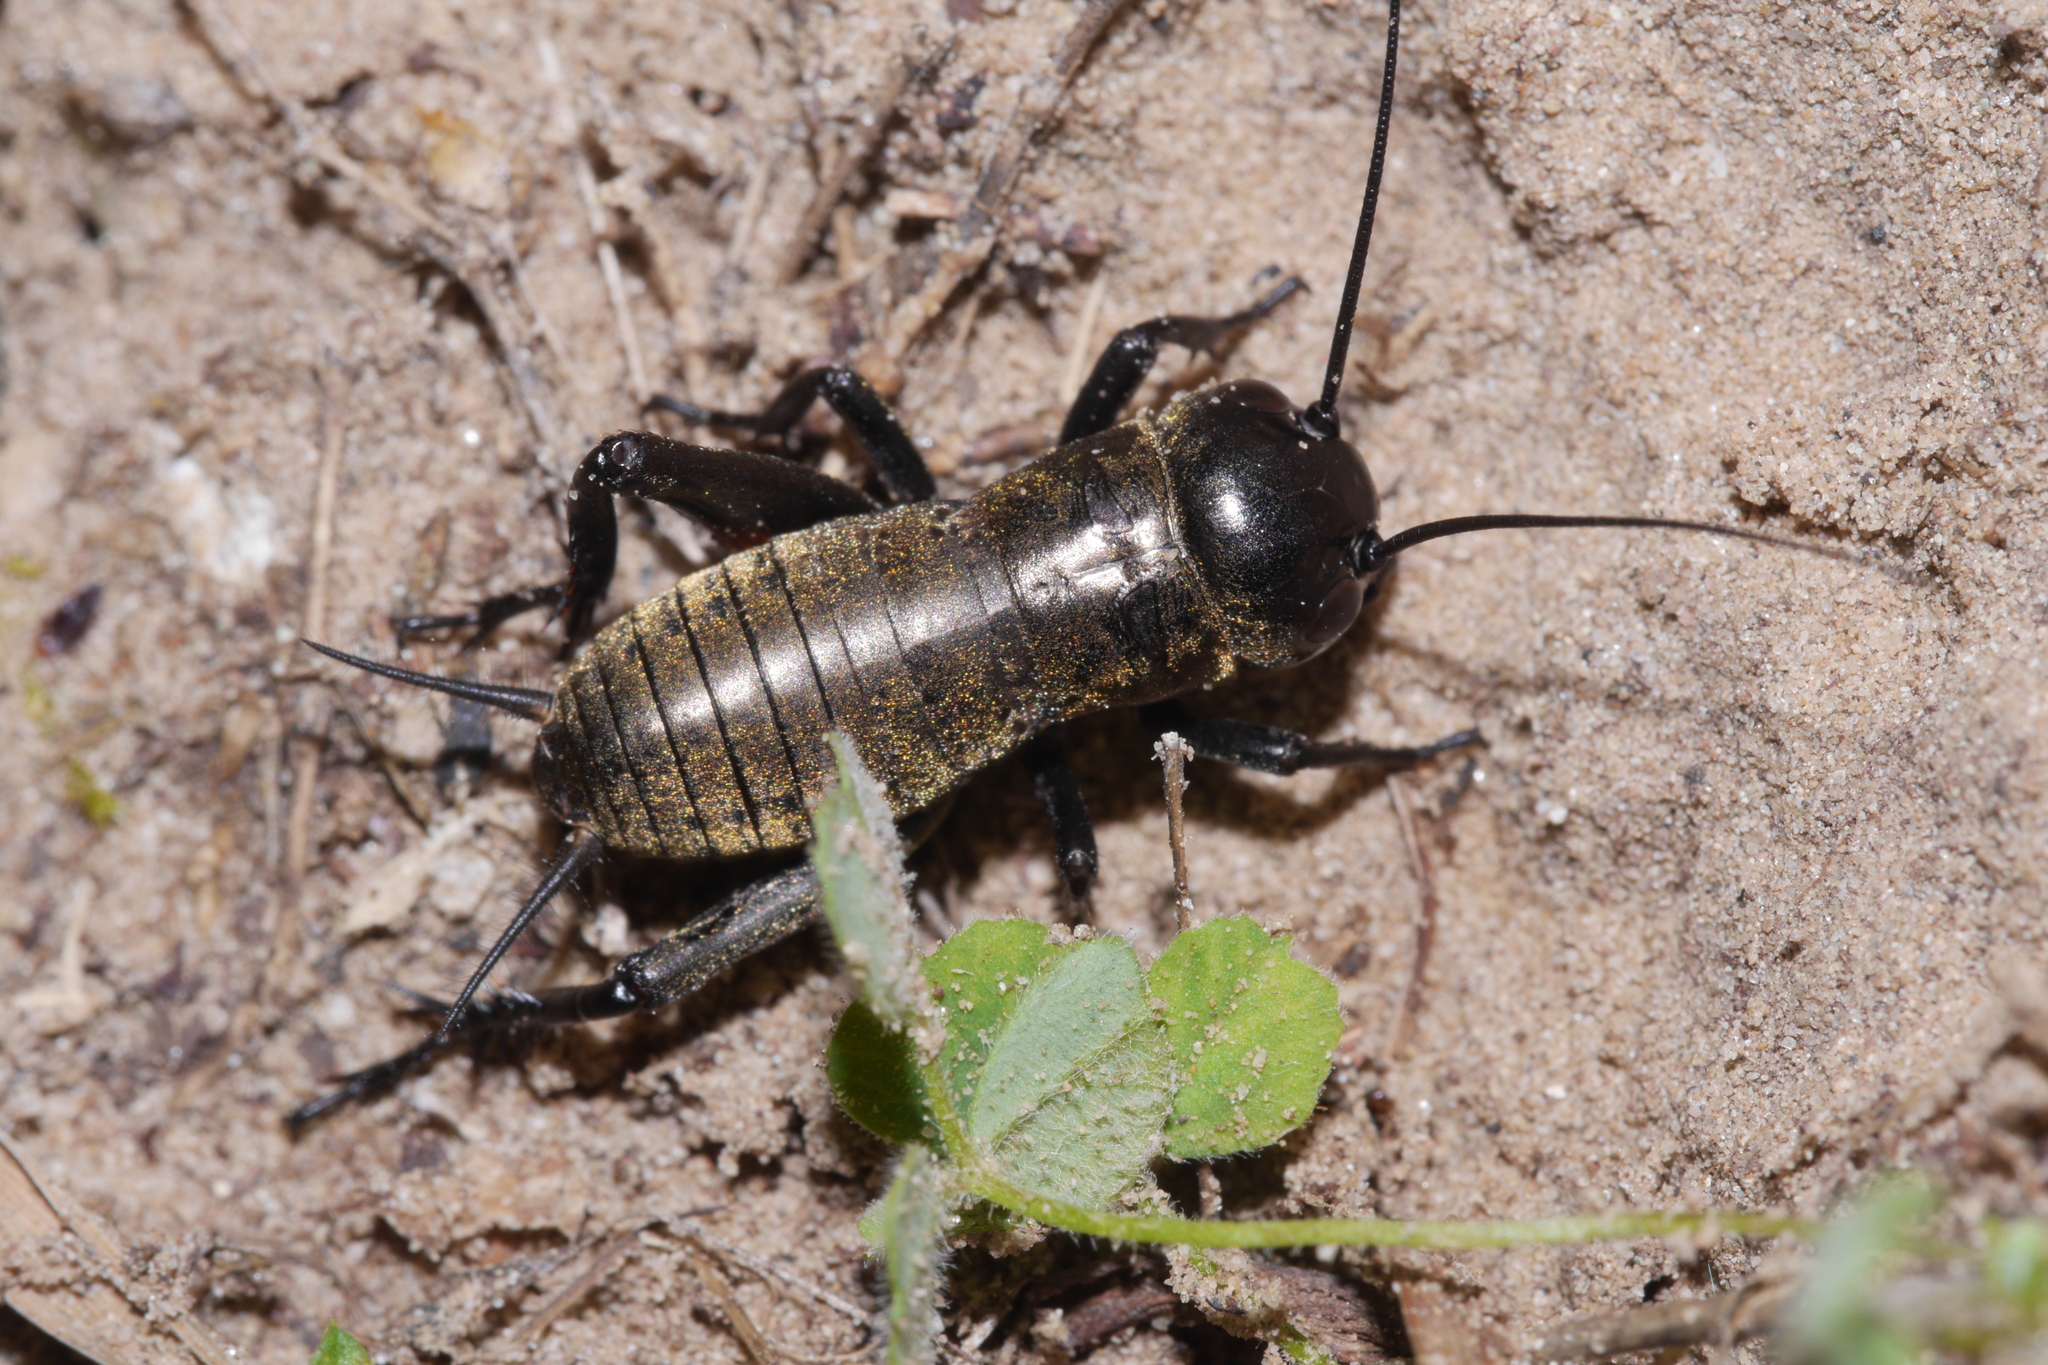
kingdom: Animalia
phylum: Arthropoda
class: Insecta
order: Orthoptera
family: Gryllidae
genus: Gryllus
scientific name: Gryllus campestris
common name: Field cricket
